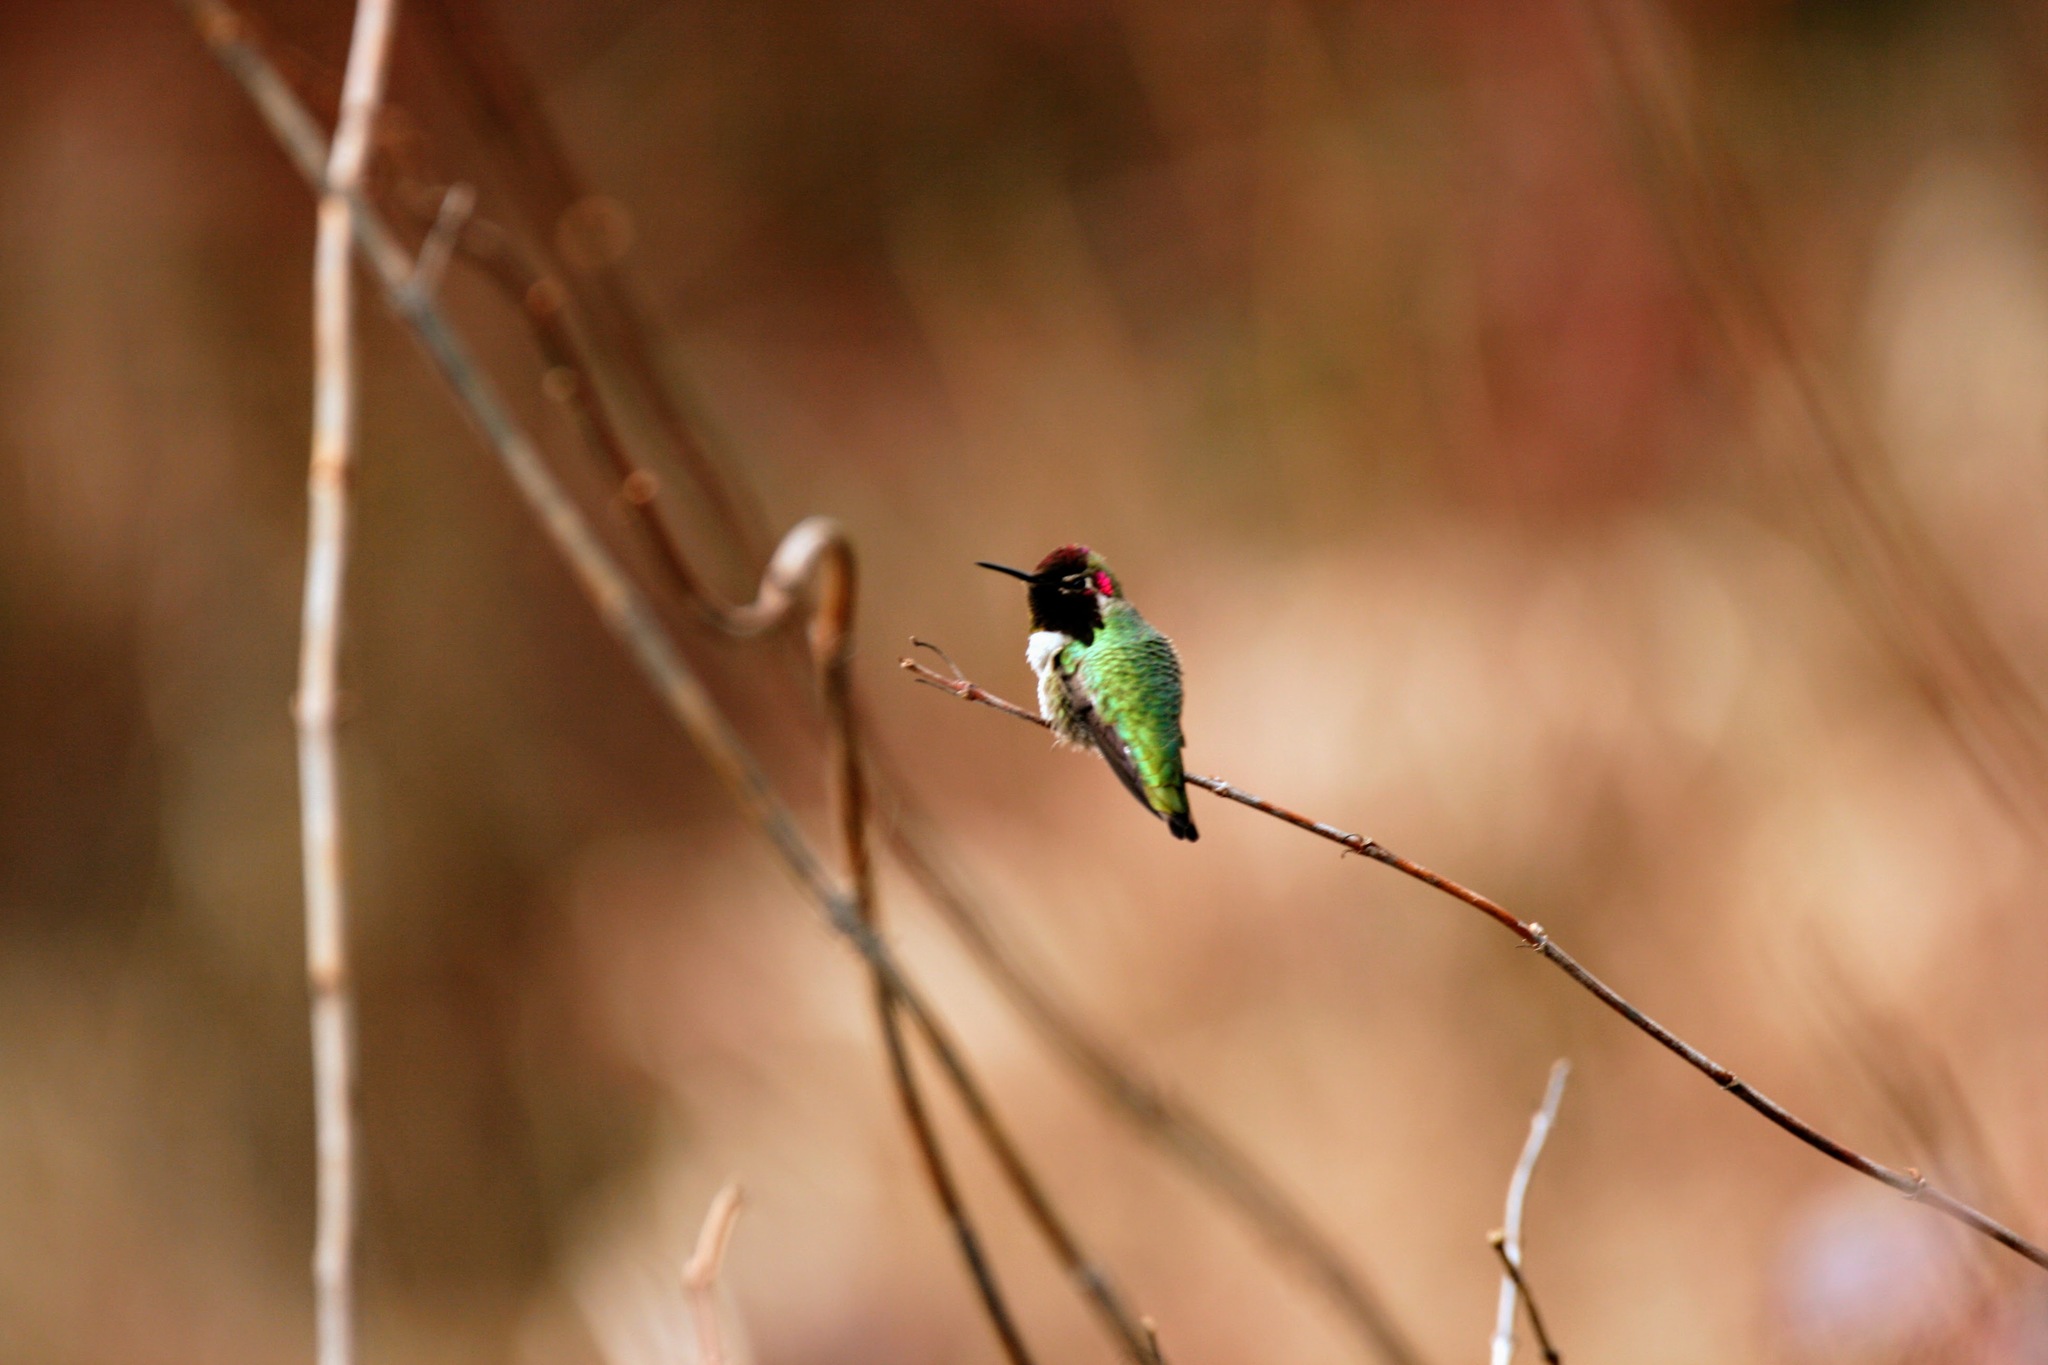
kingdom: Animalia
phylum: Chordata
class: Aves
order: Apodiformes
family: Trochilidae
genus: Calypte
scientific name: Calypte anna
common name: Anna's hummingbird
